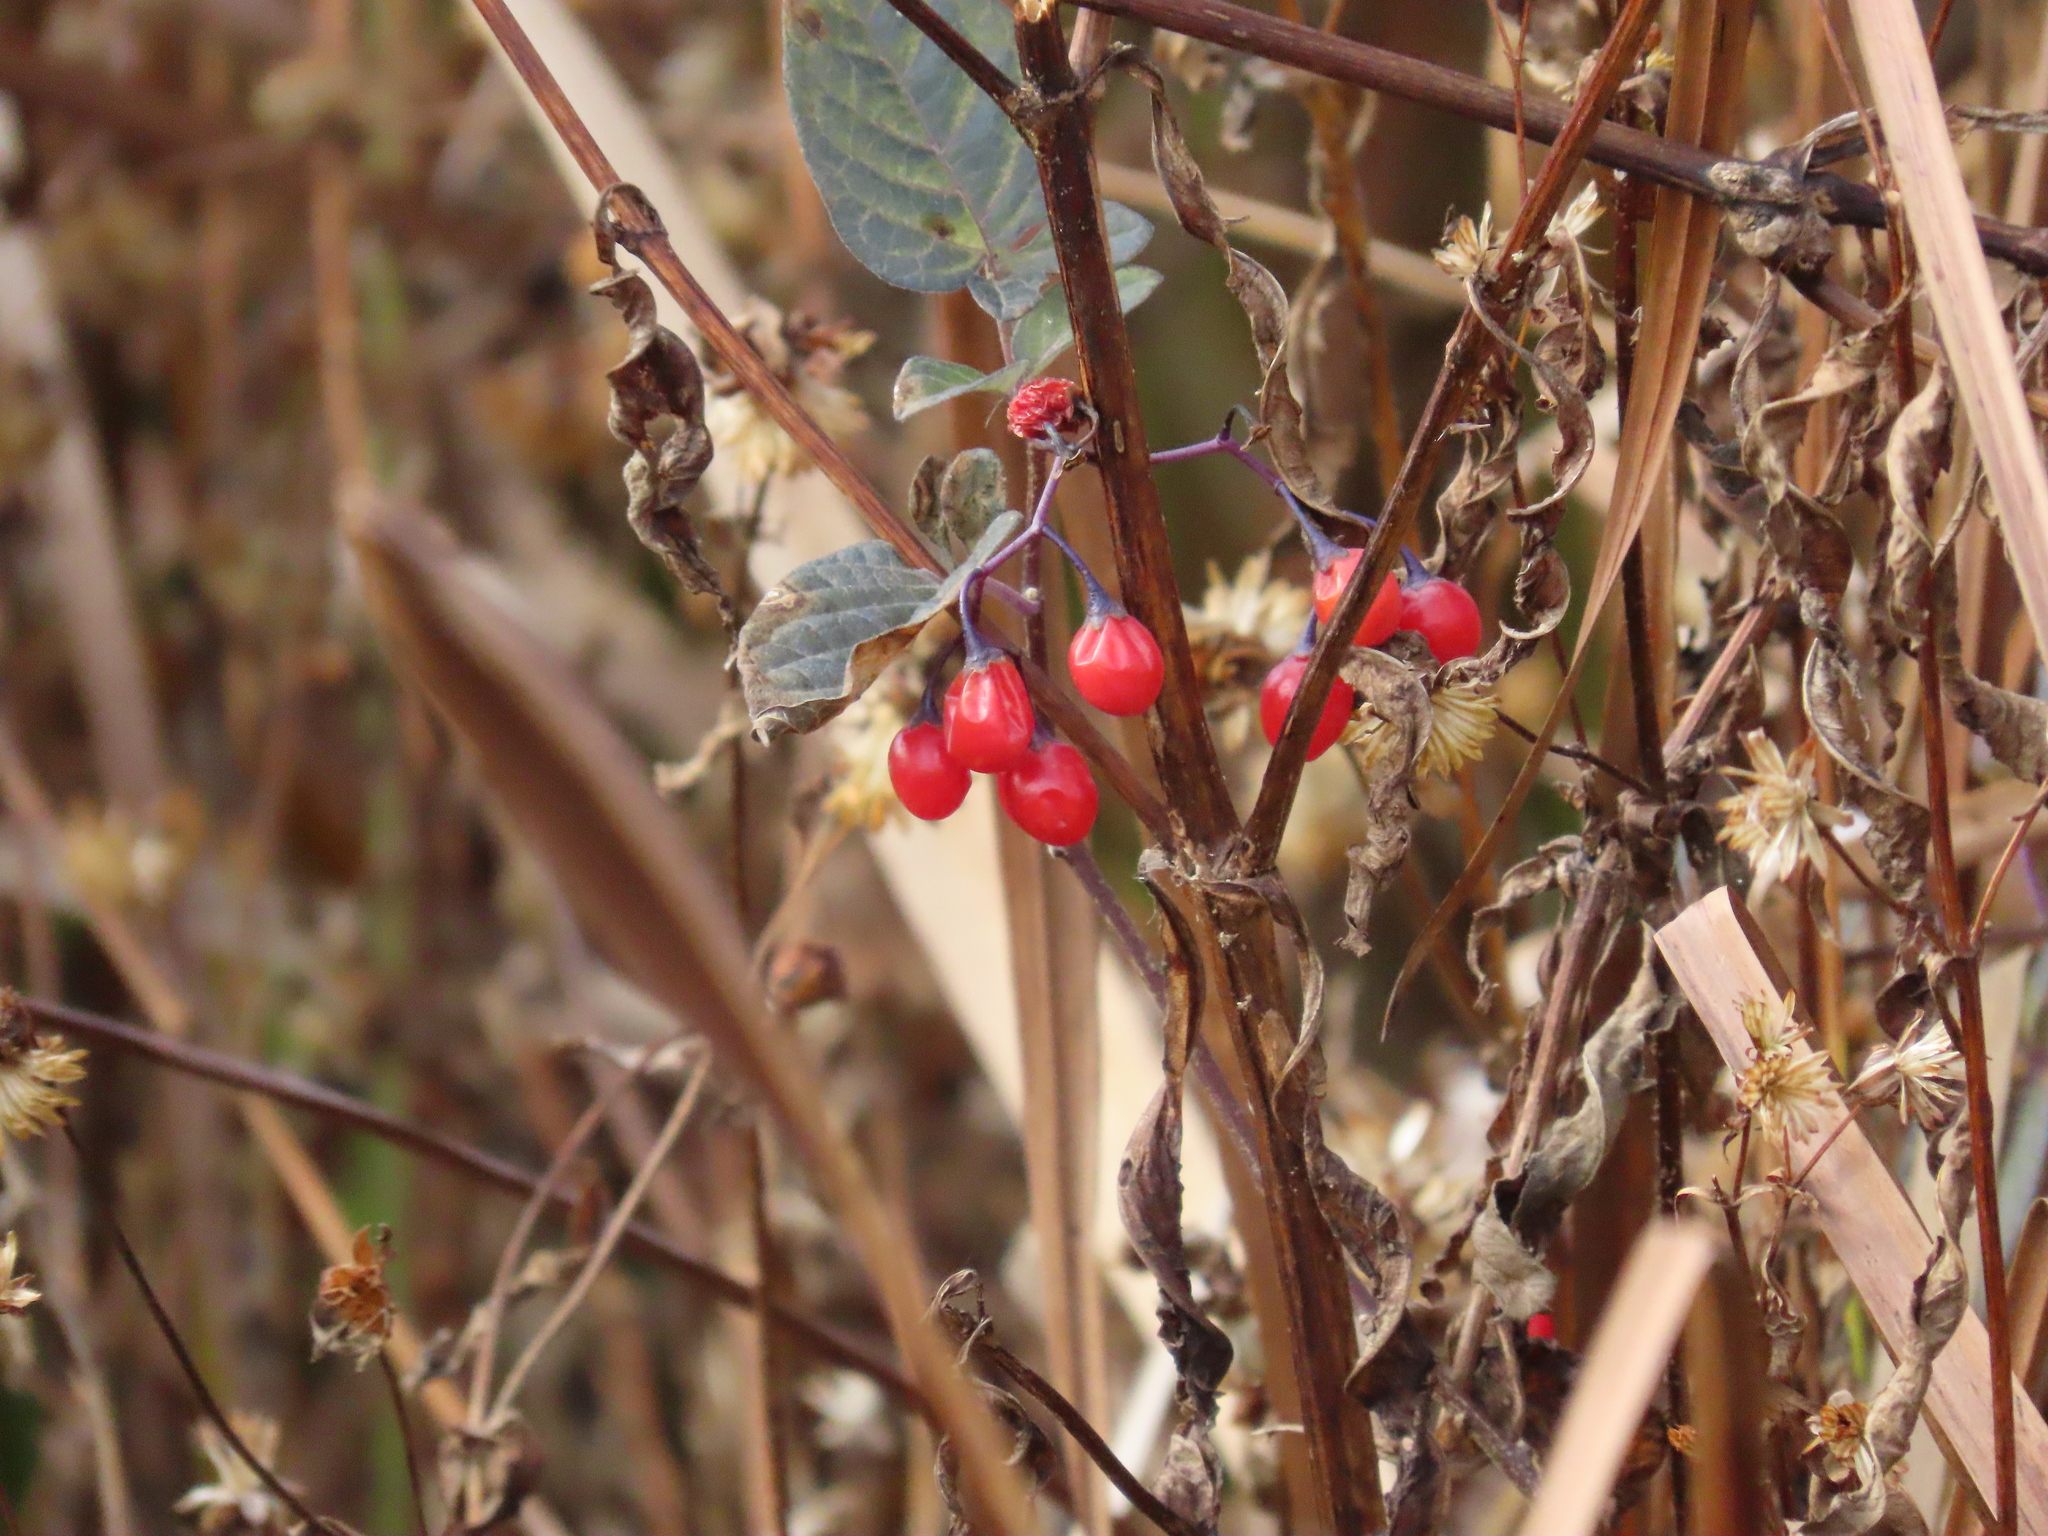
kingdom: Plantae
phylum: Tracheophyta
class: Magnoliopsida
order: Solanales
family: Solanaceae
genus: Solanum
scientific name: Solanum dulcamara
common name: Climbing nightshade
